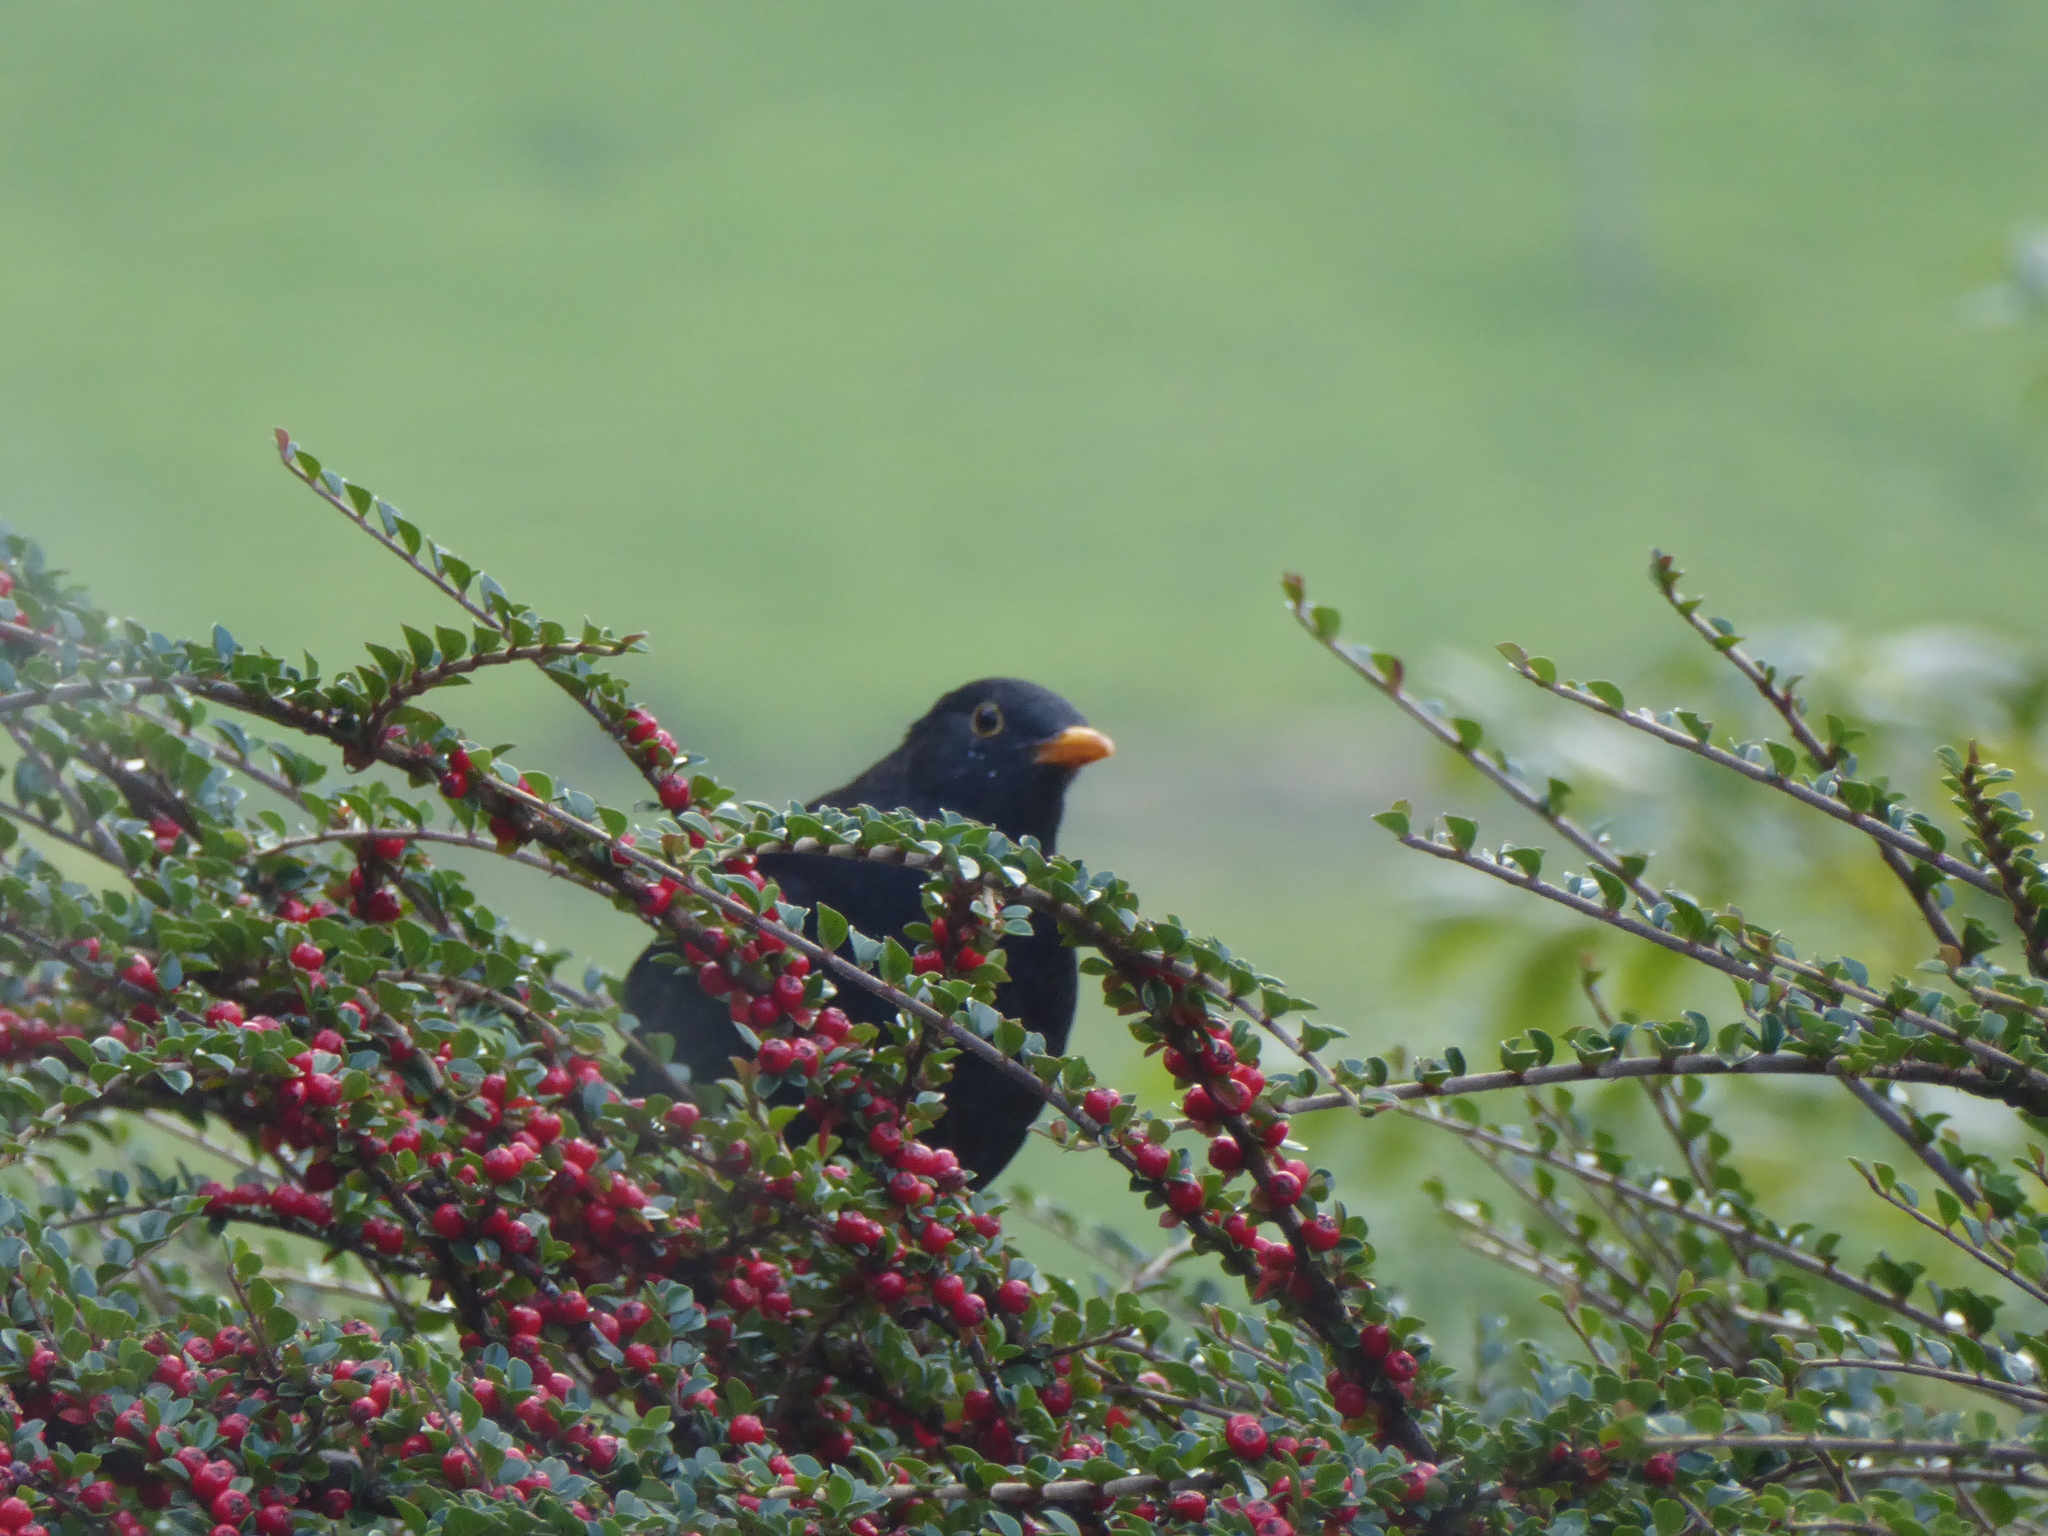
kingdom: Animalia
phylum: Chordata
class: Aves
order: Passeriformes
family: Turdidae
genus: Turdus
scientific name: Turdus merula
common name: Common blackbird
